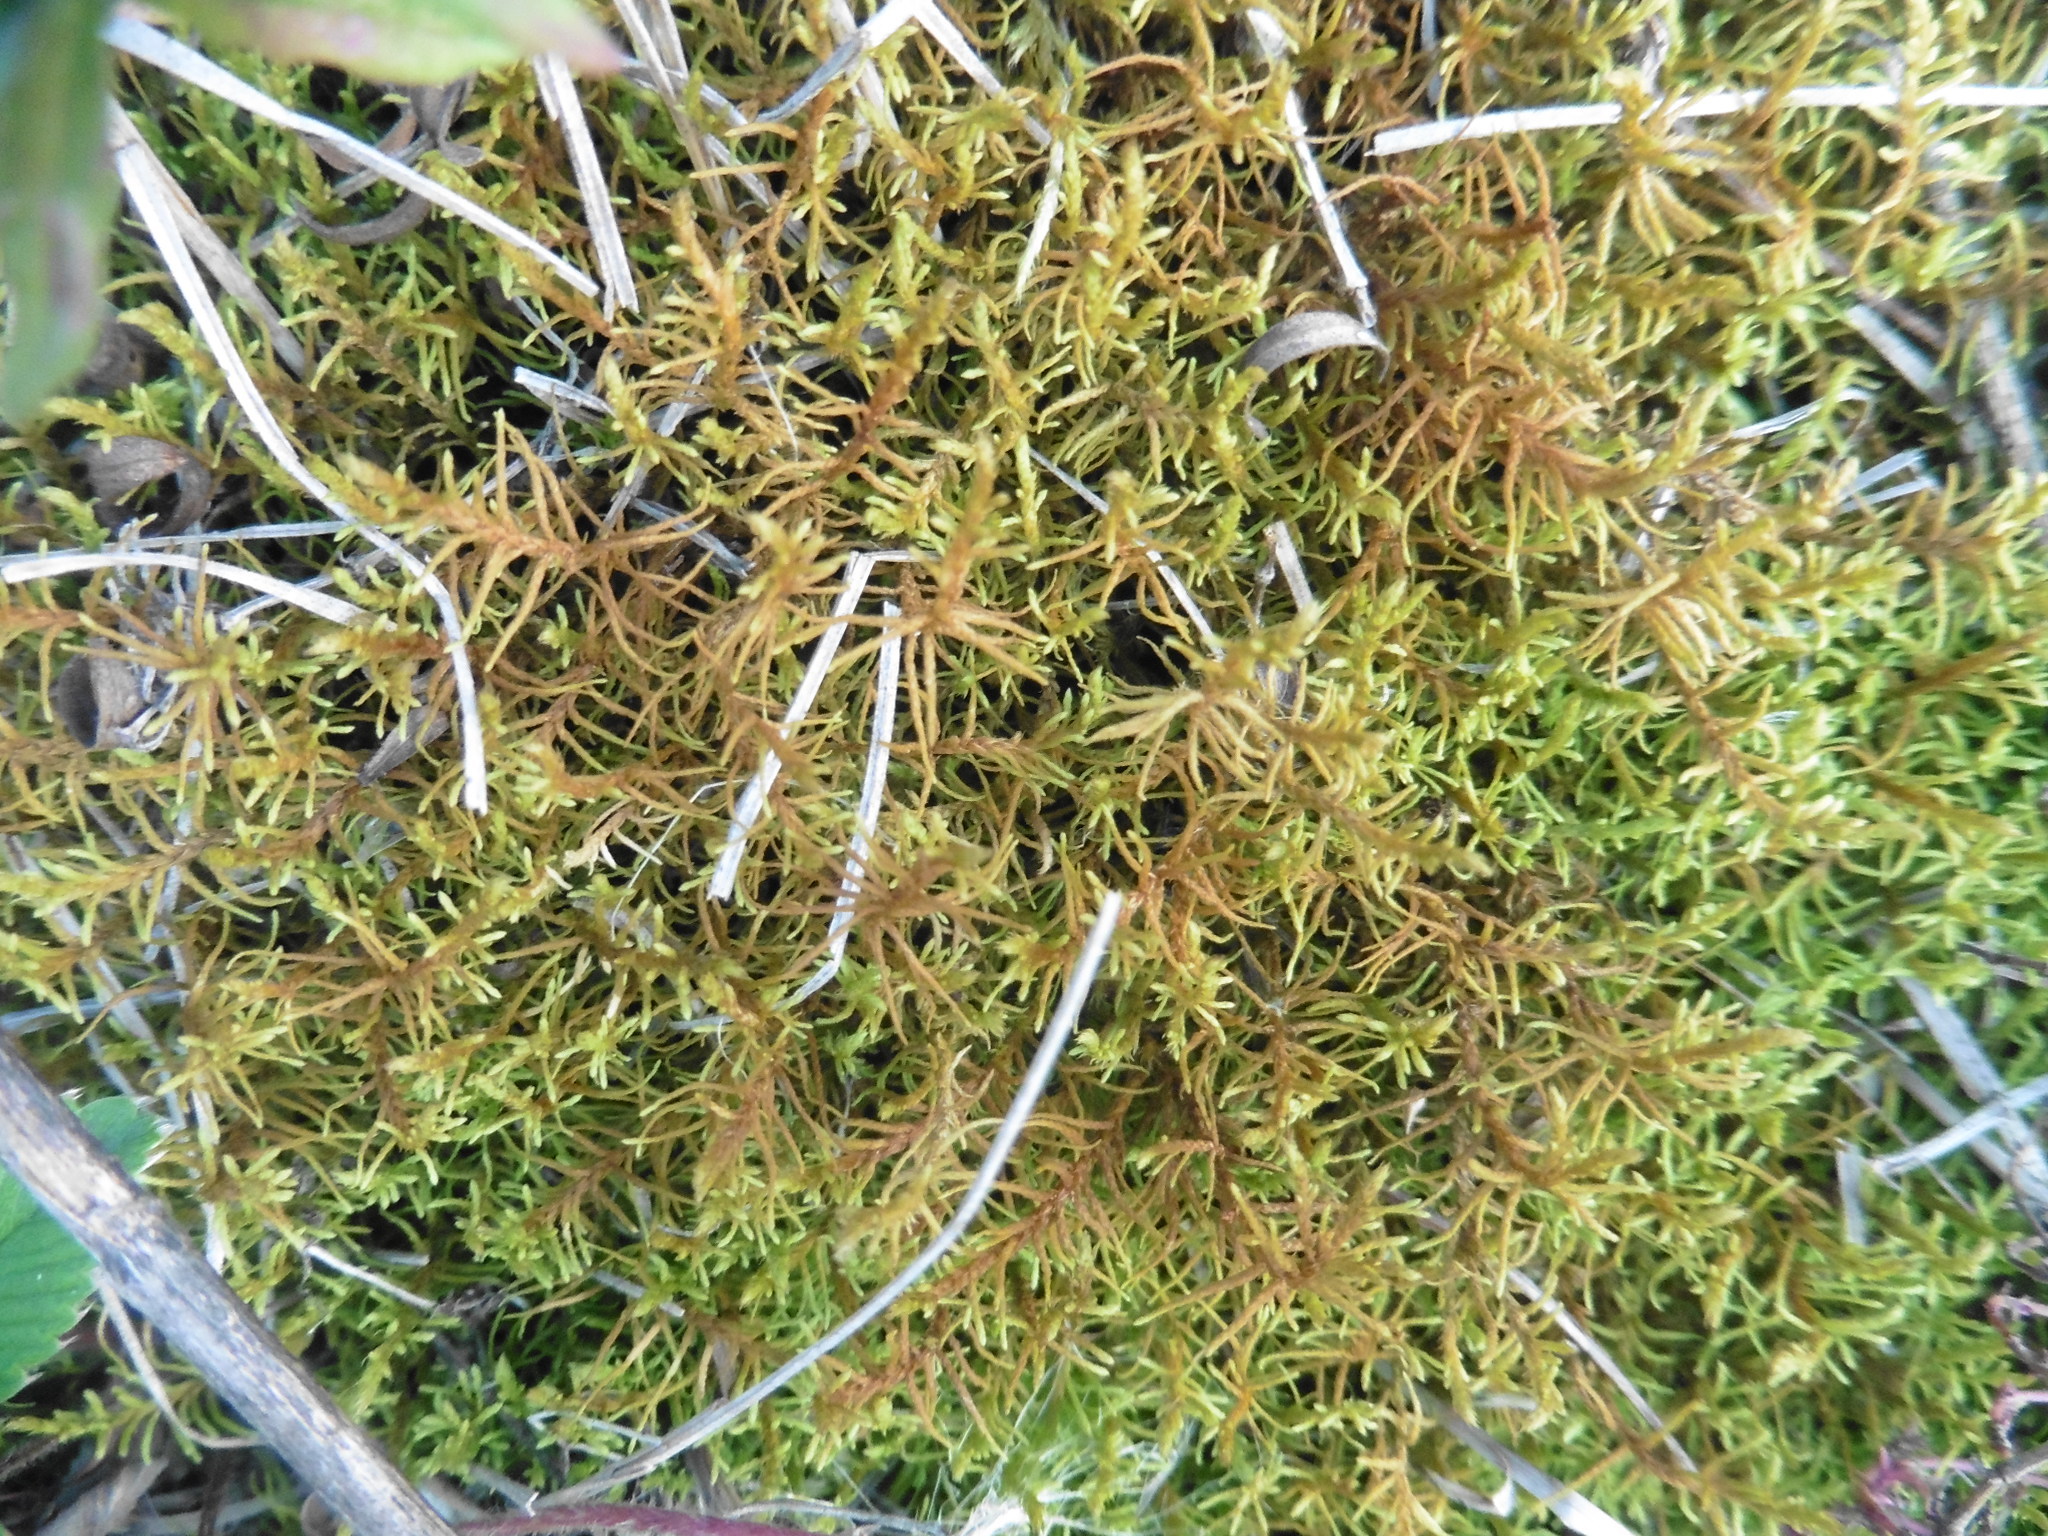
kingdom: Plantae
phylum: Bryophyta
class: Bryopsida
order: Hypnales
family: Thuidiaceae
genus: Abietinella
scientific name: Abietinella abietina
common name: Wiry fern moss
